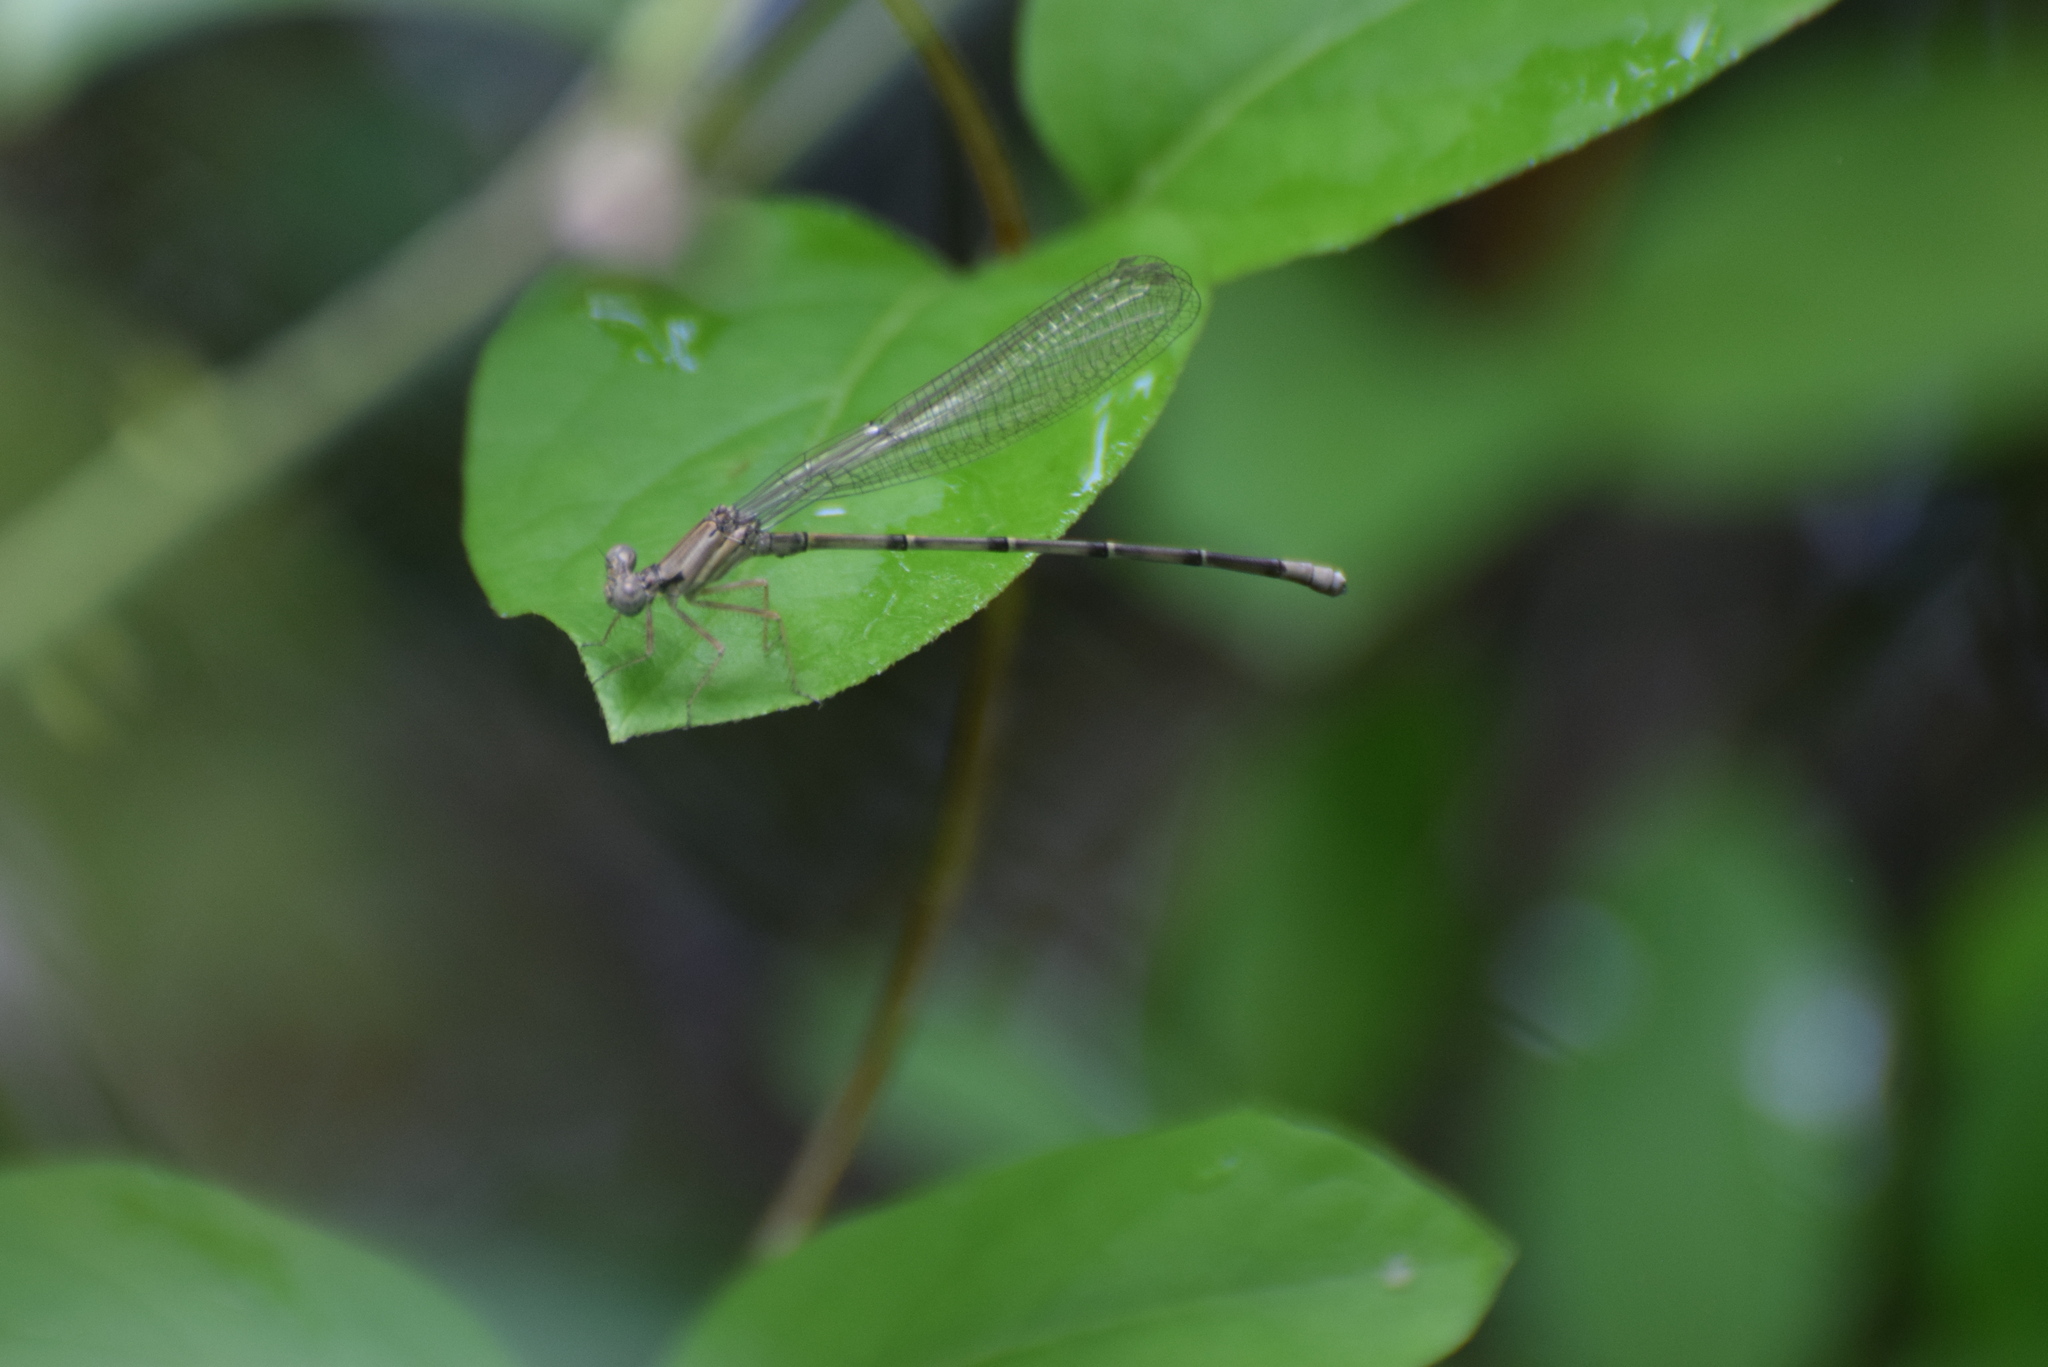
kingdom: Animalia
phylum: Arthropoda
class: Insecta
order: Odonata
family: Coenagrionidae
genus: Argia
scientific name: Argia apicalis
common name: Blue-fronted dancer
